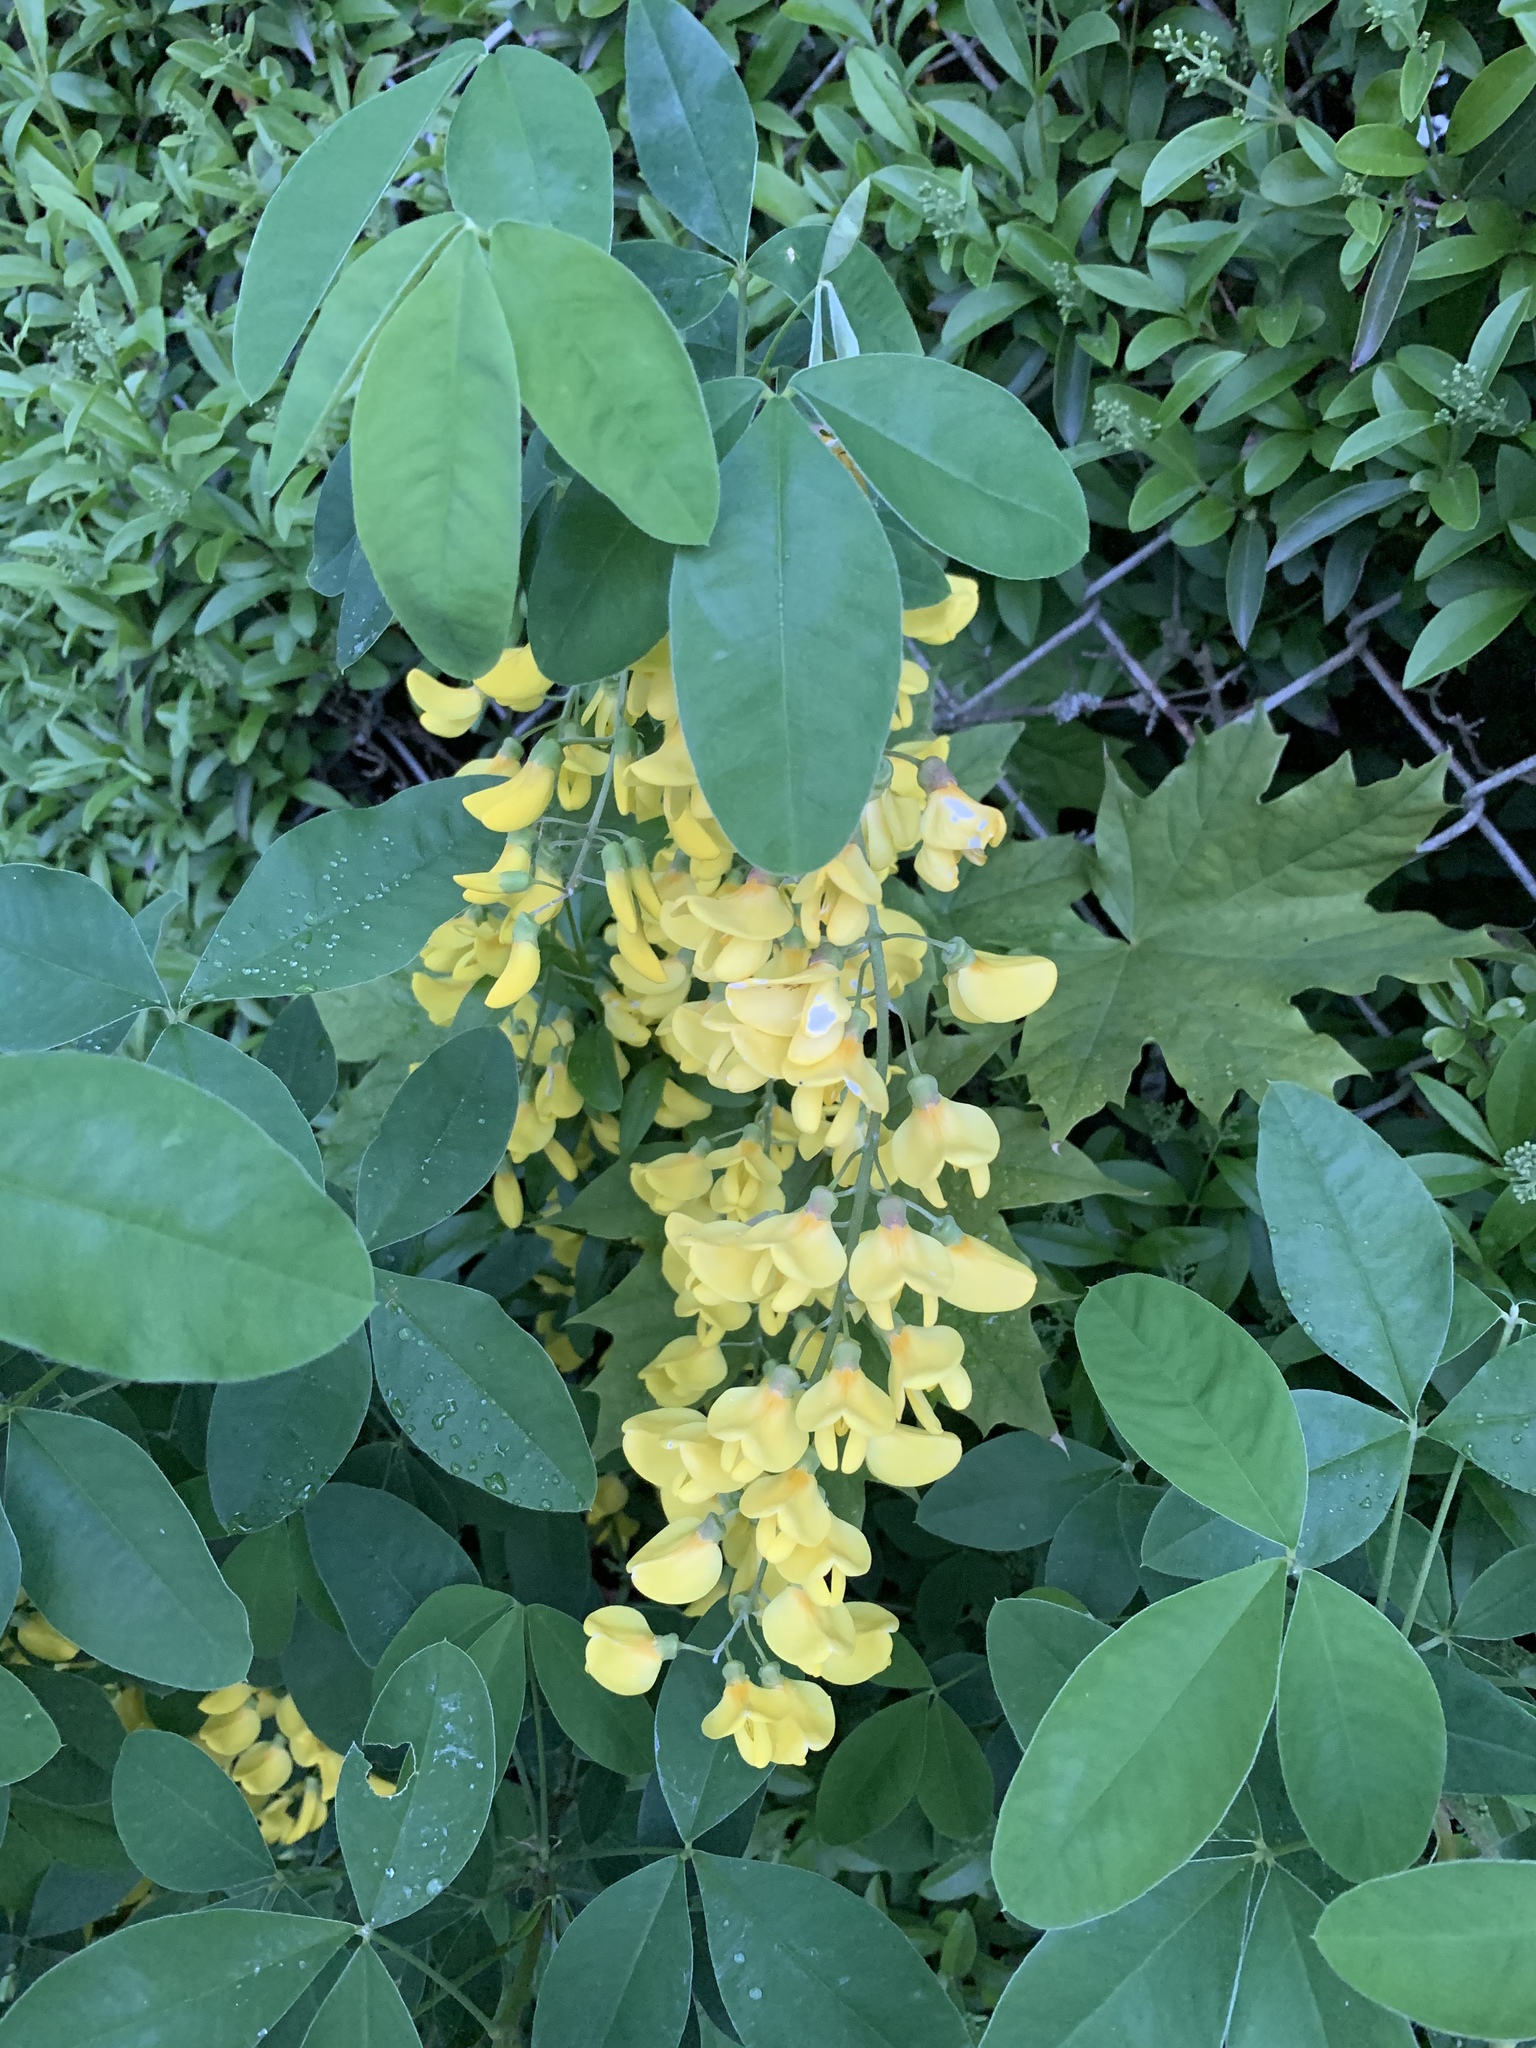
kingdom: Plantae
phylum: Tracheophyta
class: Magnoliopsida
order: Fabales
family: Fabaceae
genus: Laburnum
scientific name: Laburnum anagyroides
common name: Laburnum
